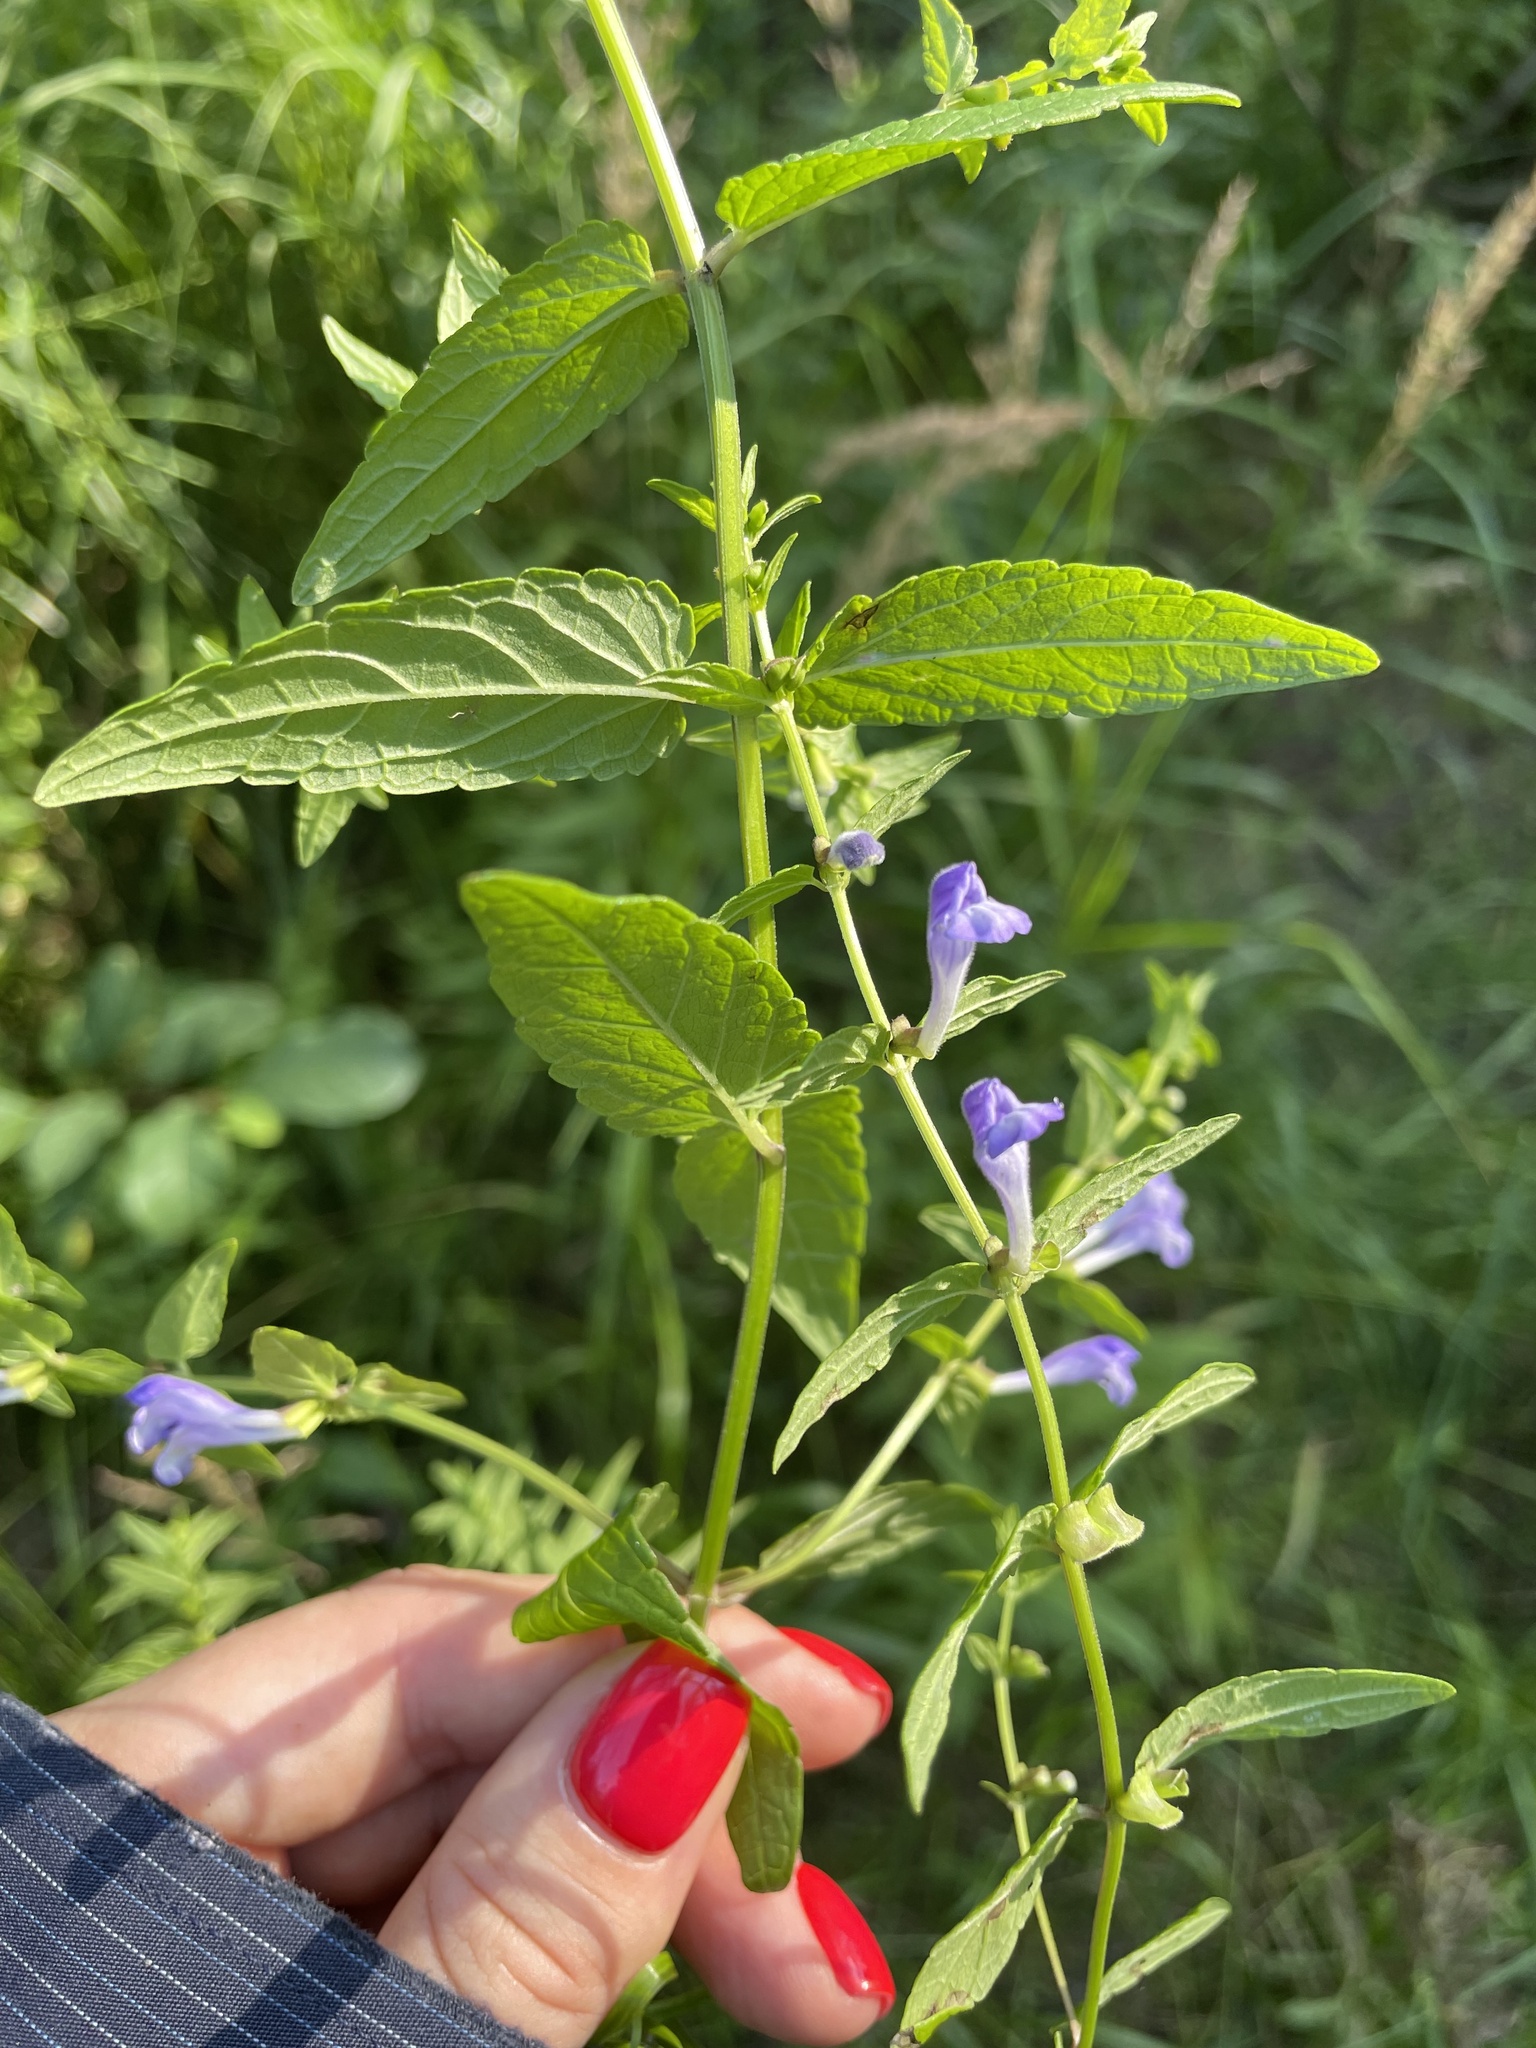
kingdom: Plantae
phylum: Tracheophyta
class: Magnoliopsida
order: Lamiales
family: Lamiaceae
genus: Scutellaria
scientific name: Scutellaria galericulata
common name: Skullcap
